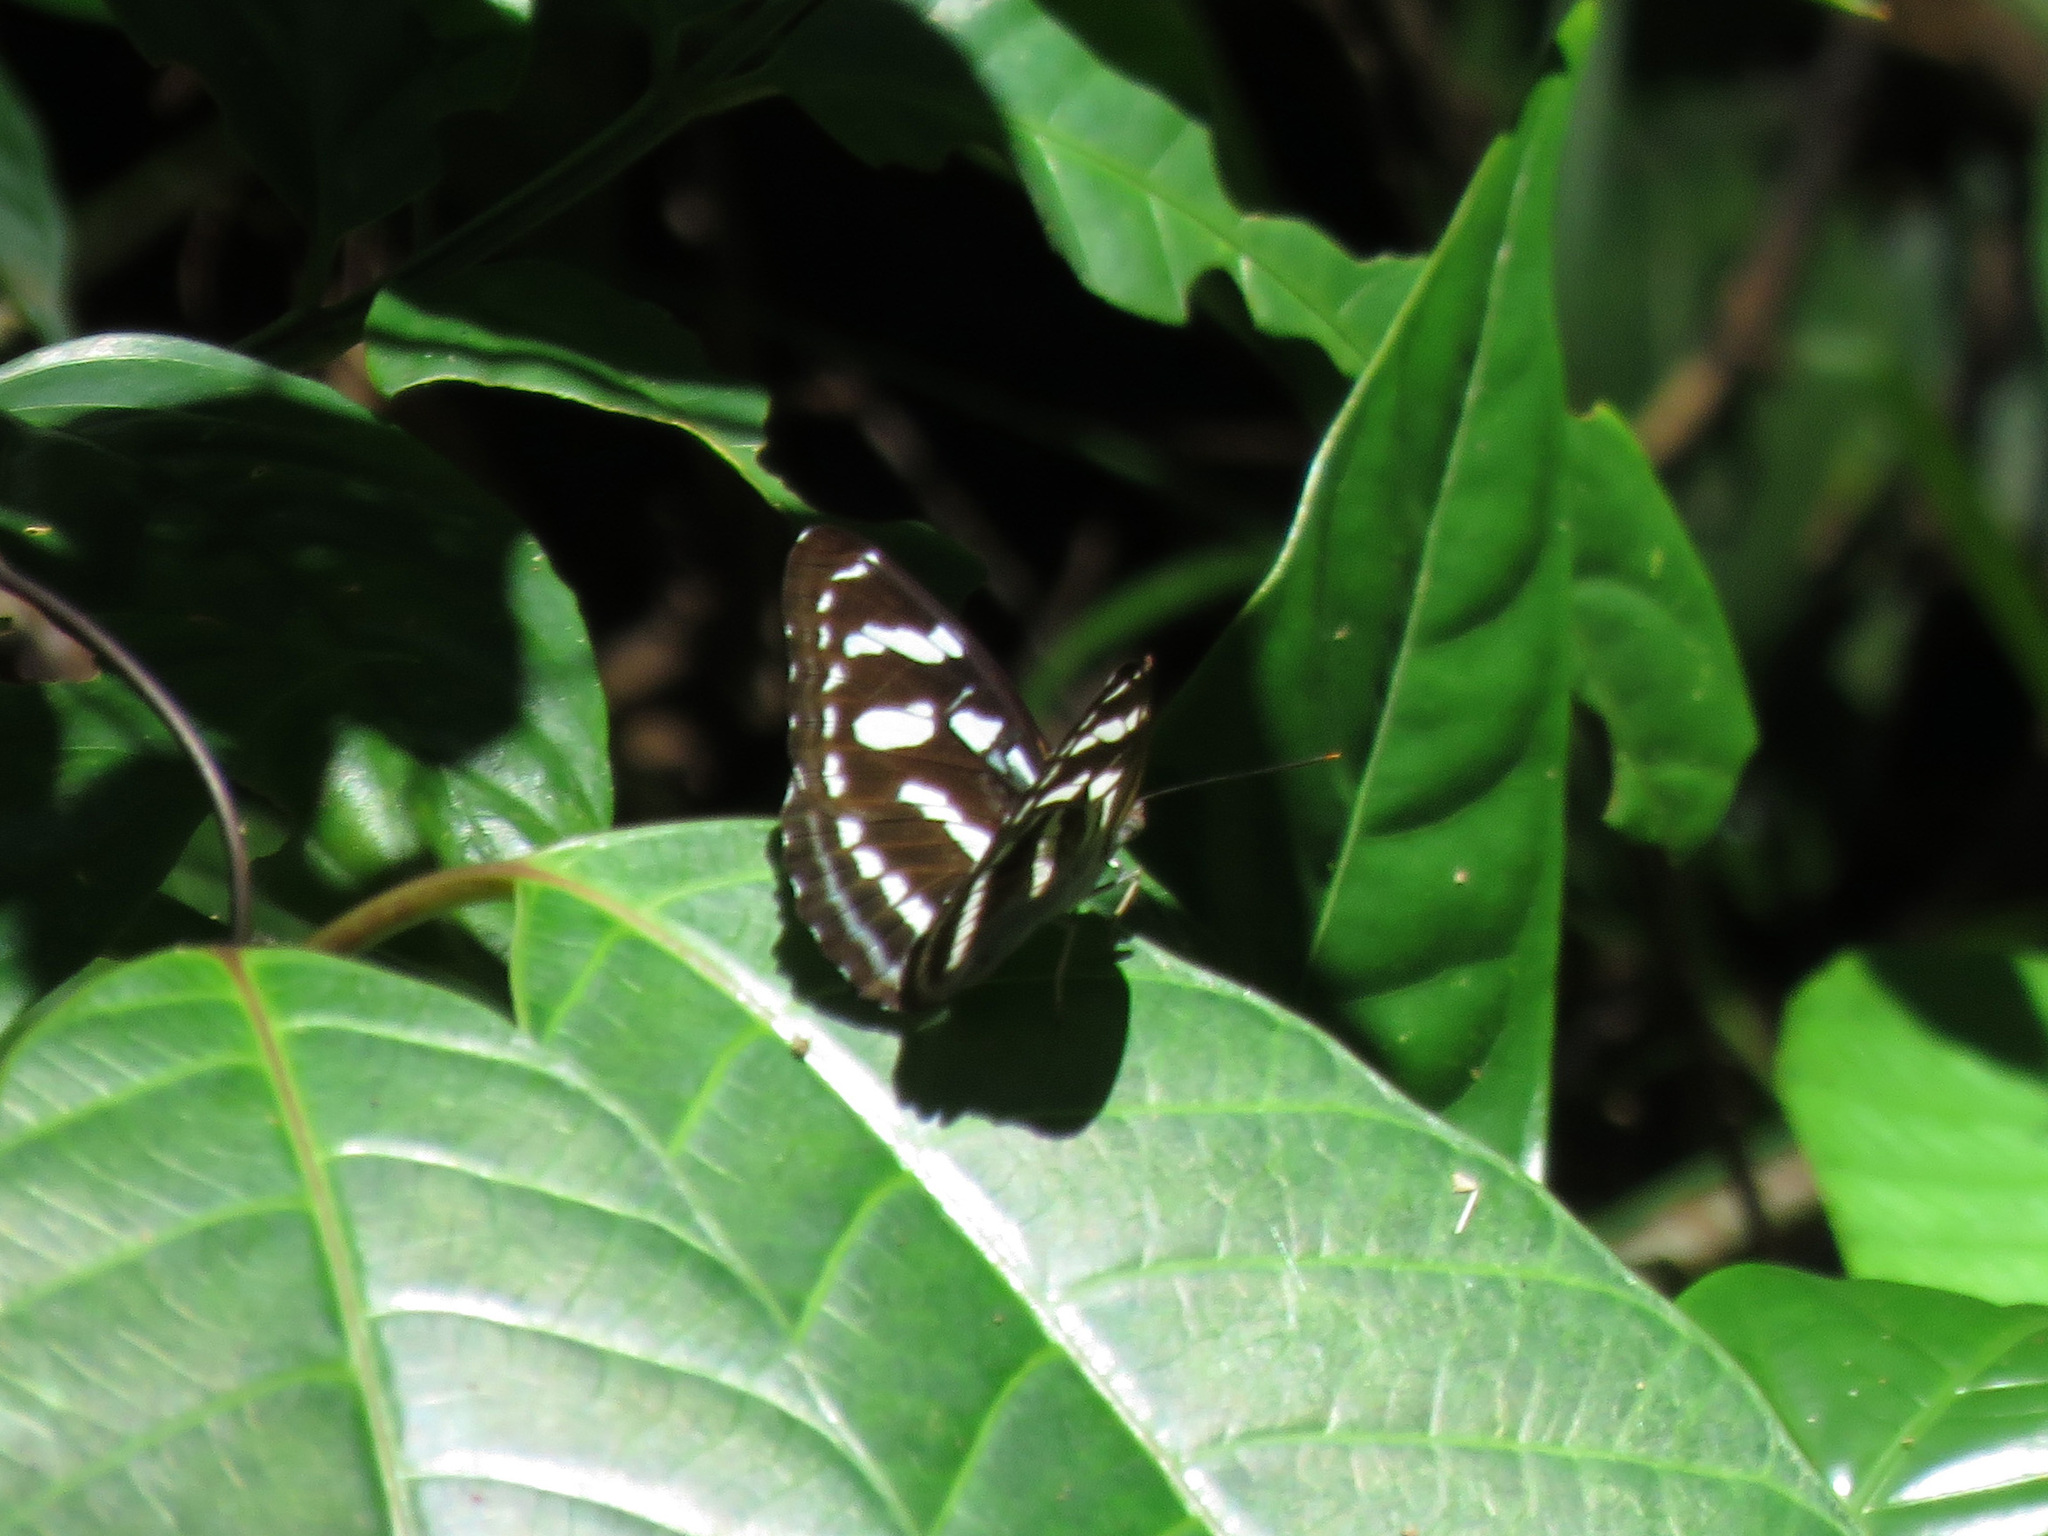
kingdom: Animalia
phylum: Arthropoda
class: Insecta
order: Lepidoptera
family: Nymphalidae
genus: Parathyma
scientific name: Parathyma abiasa
